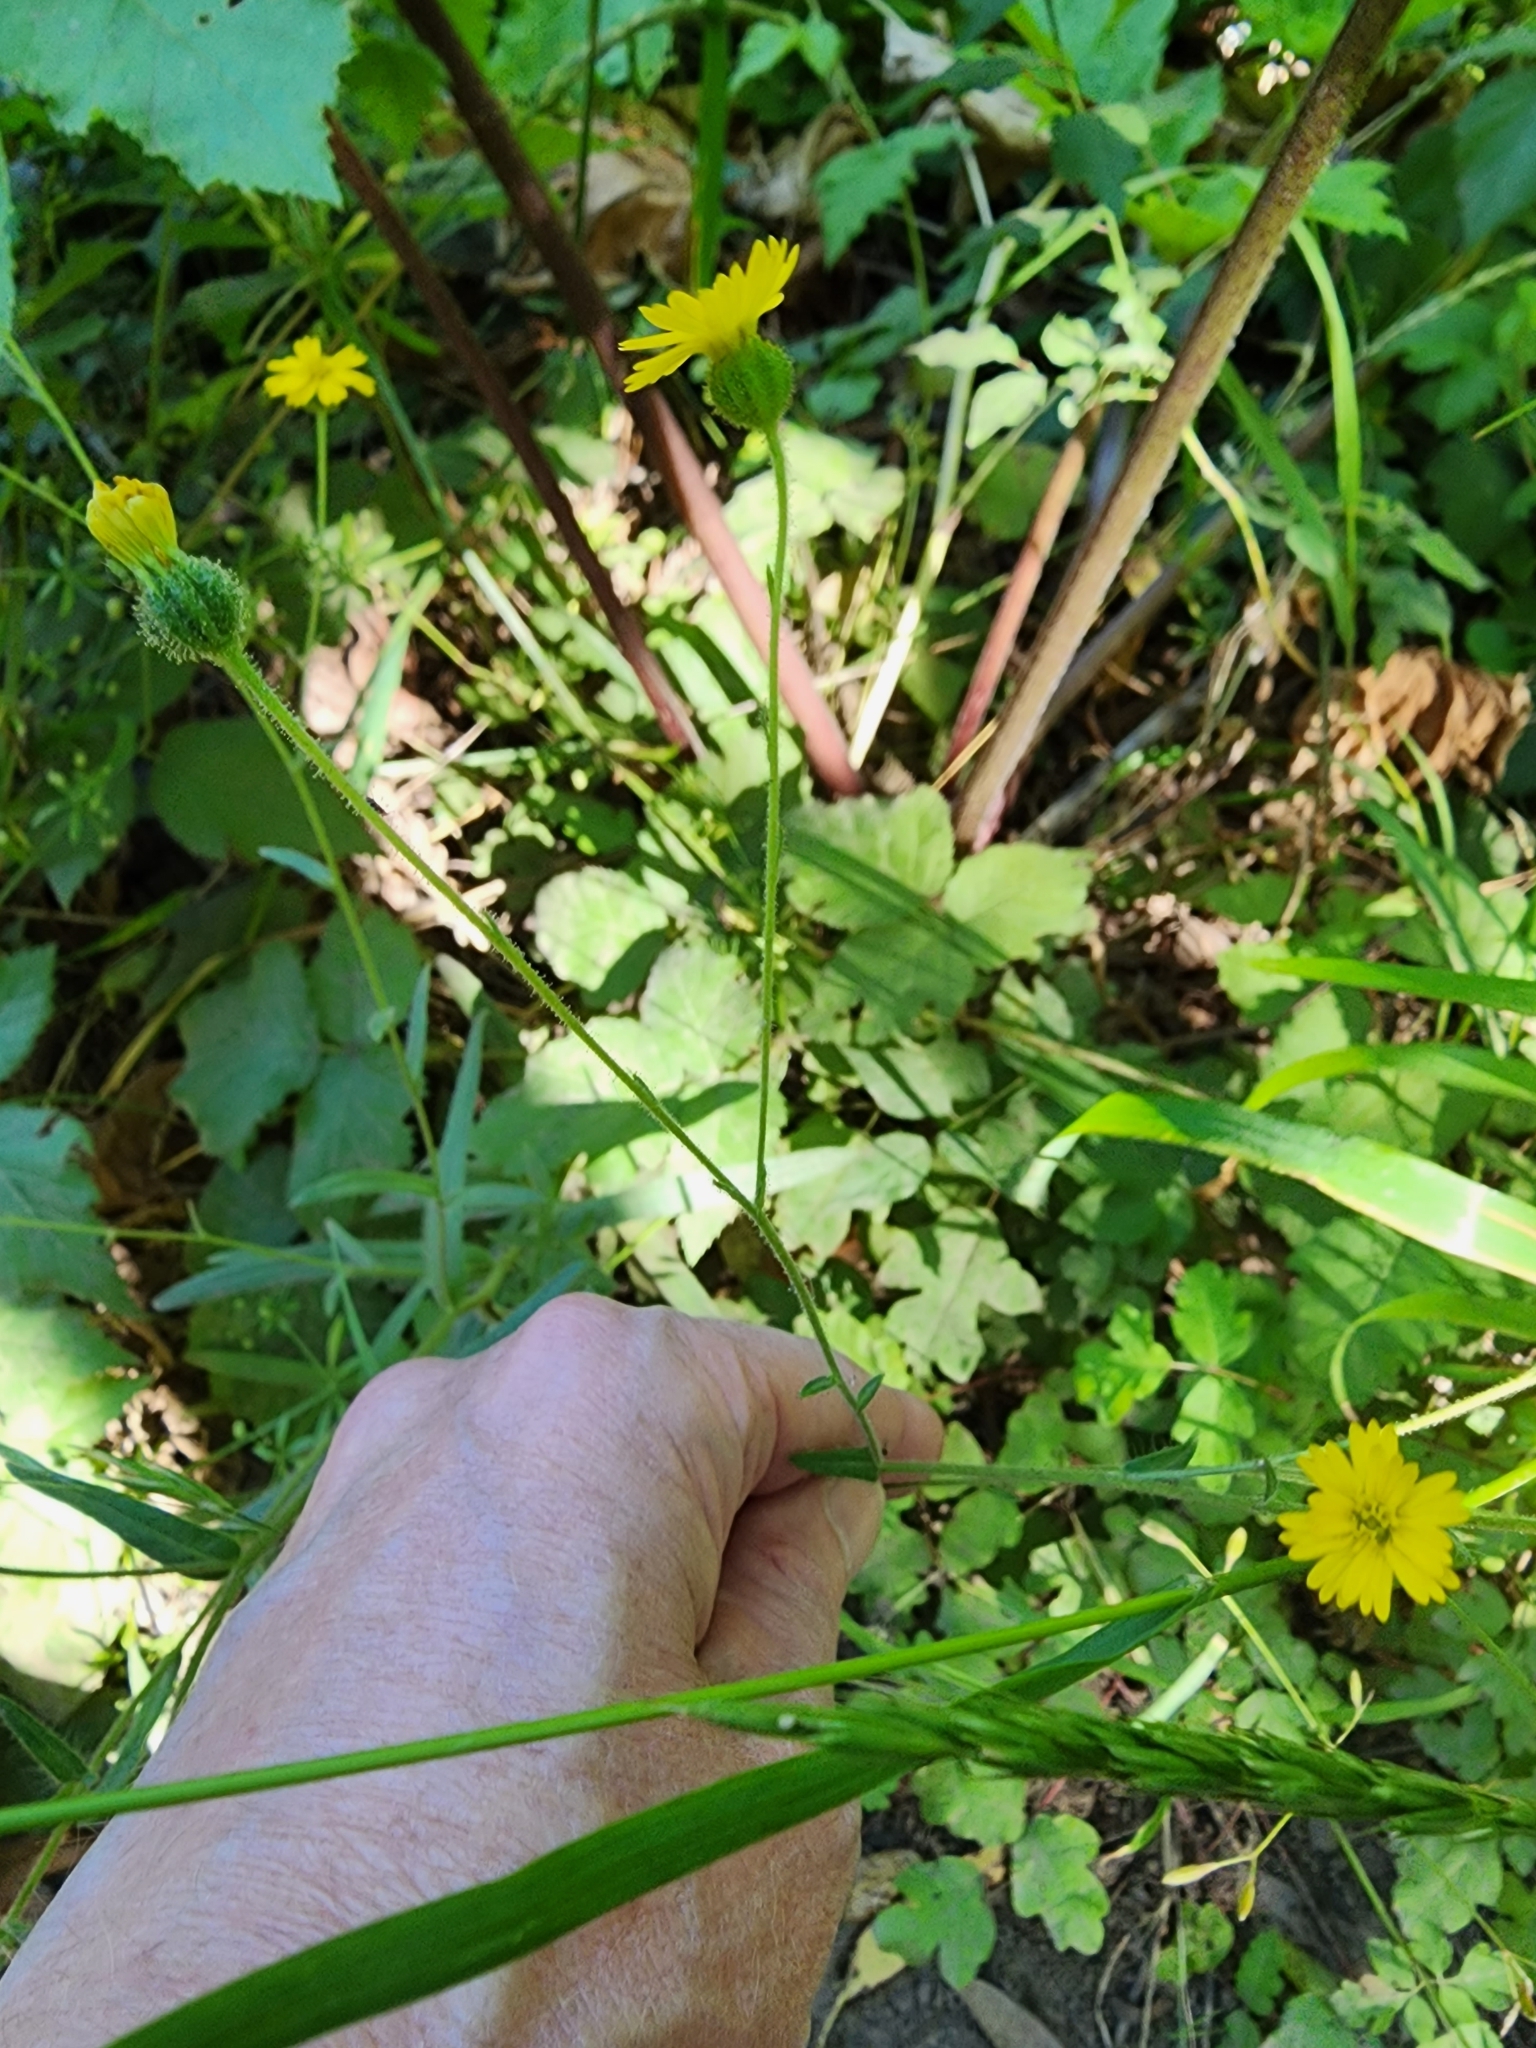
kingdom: Plantae
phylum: Tracheophyta
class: Magnoliopsida
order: Asterales
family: Asteraceae
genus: Anisocarpus
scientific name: Anisocarpus madioides
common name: Woodland madia
